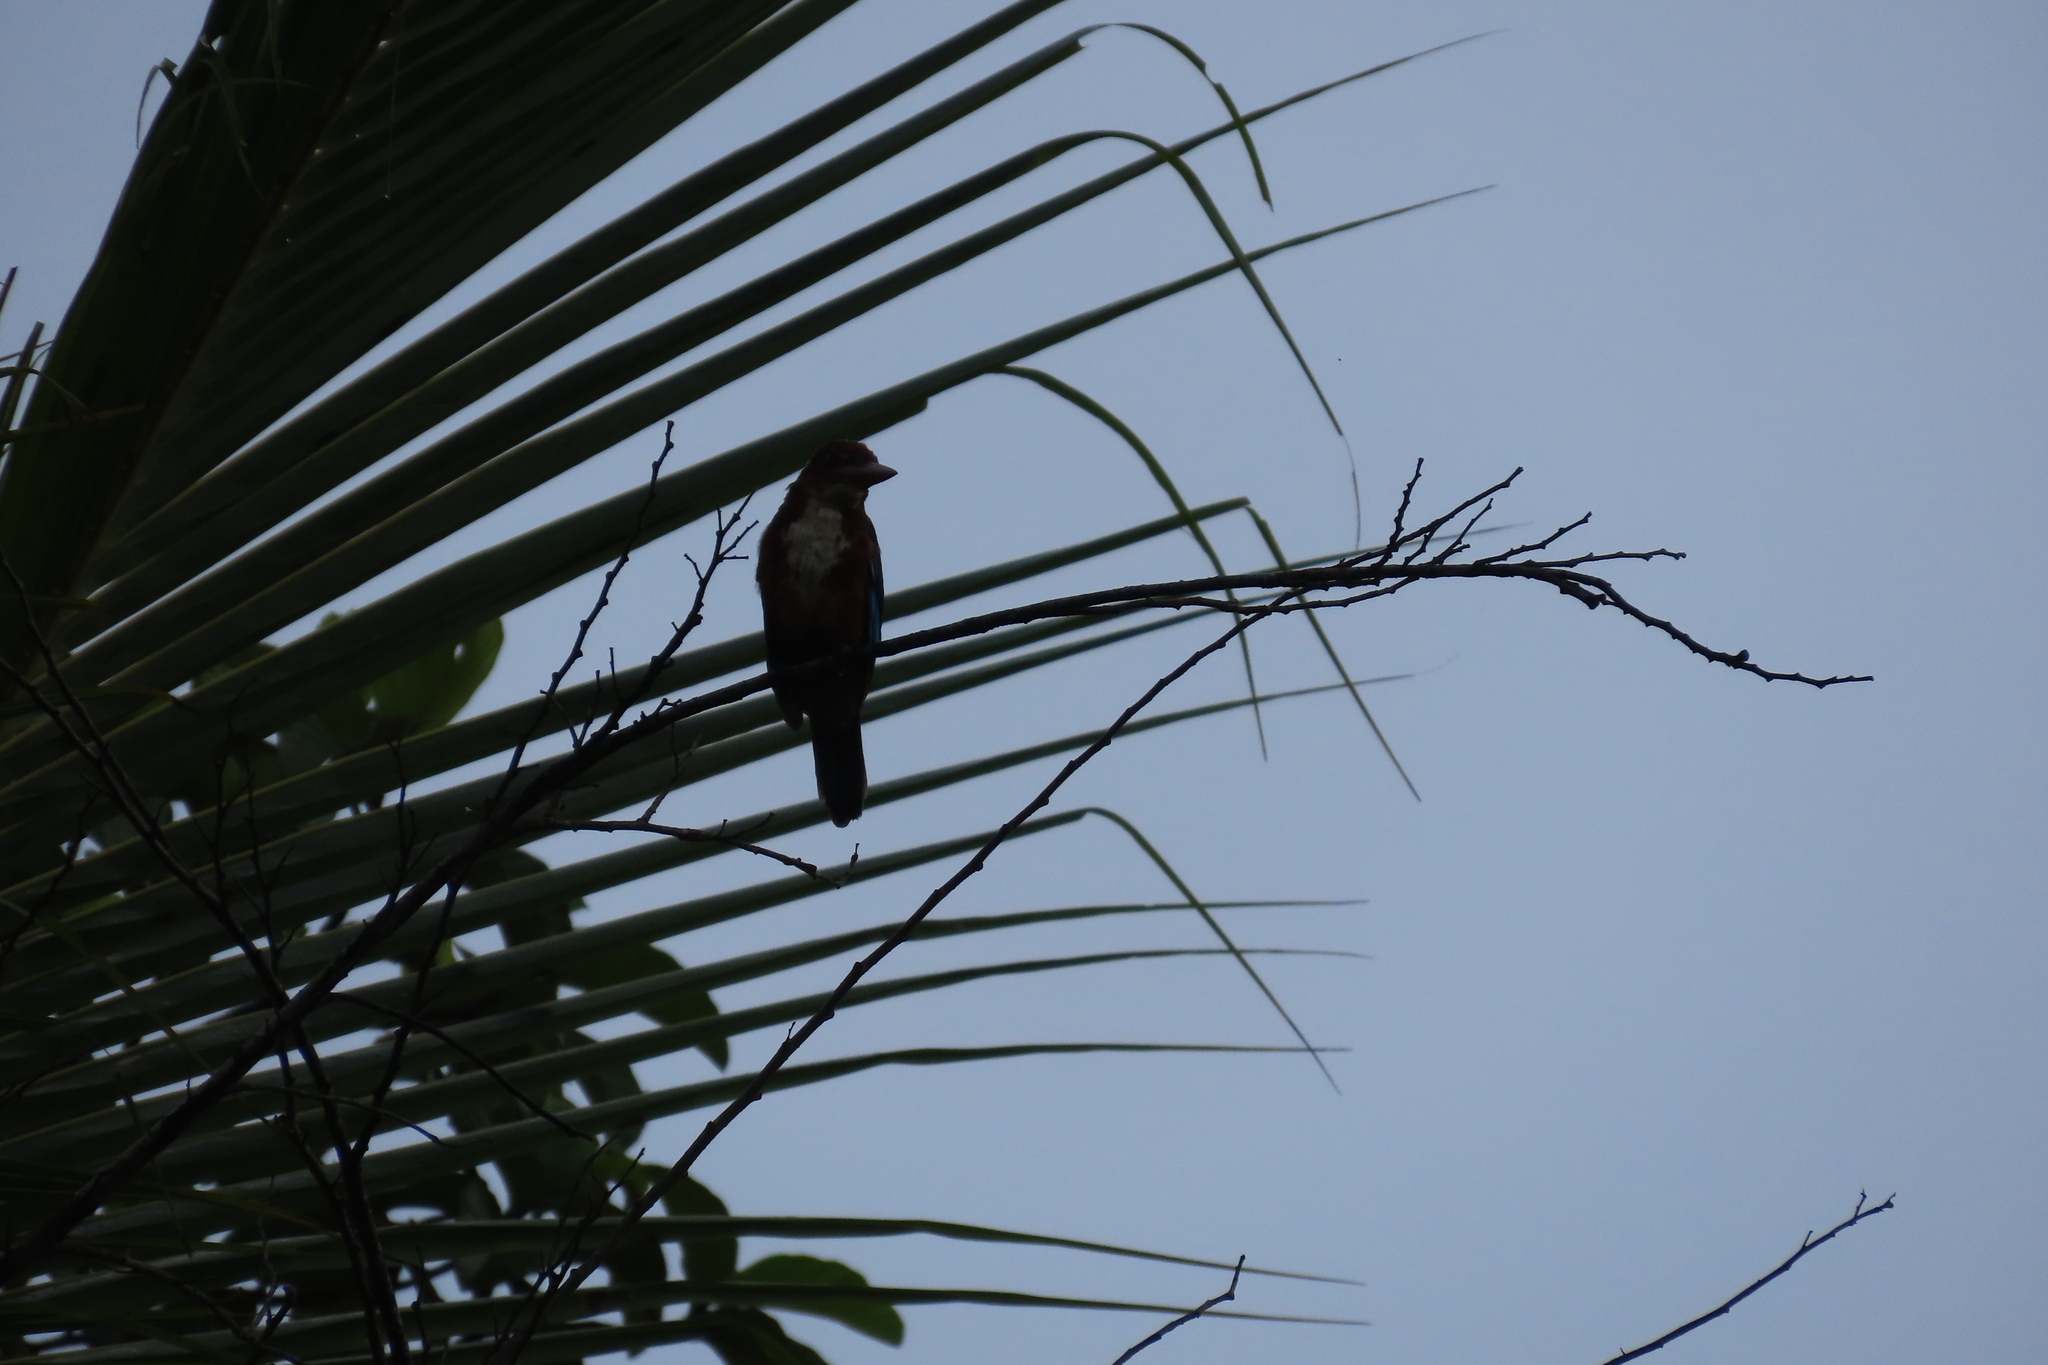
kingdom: Animalia
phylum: Chordata
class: Aves
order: Coraciiformes
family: Alcedinidae
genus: Halcyon
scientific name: Halcyon smyrnensis
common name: White-throated kingfisher
